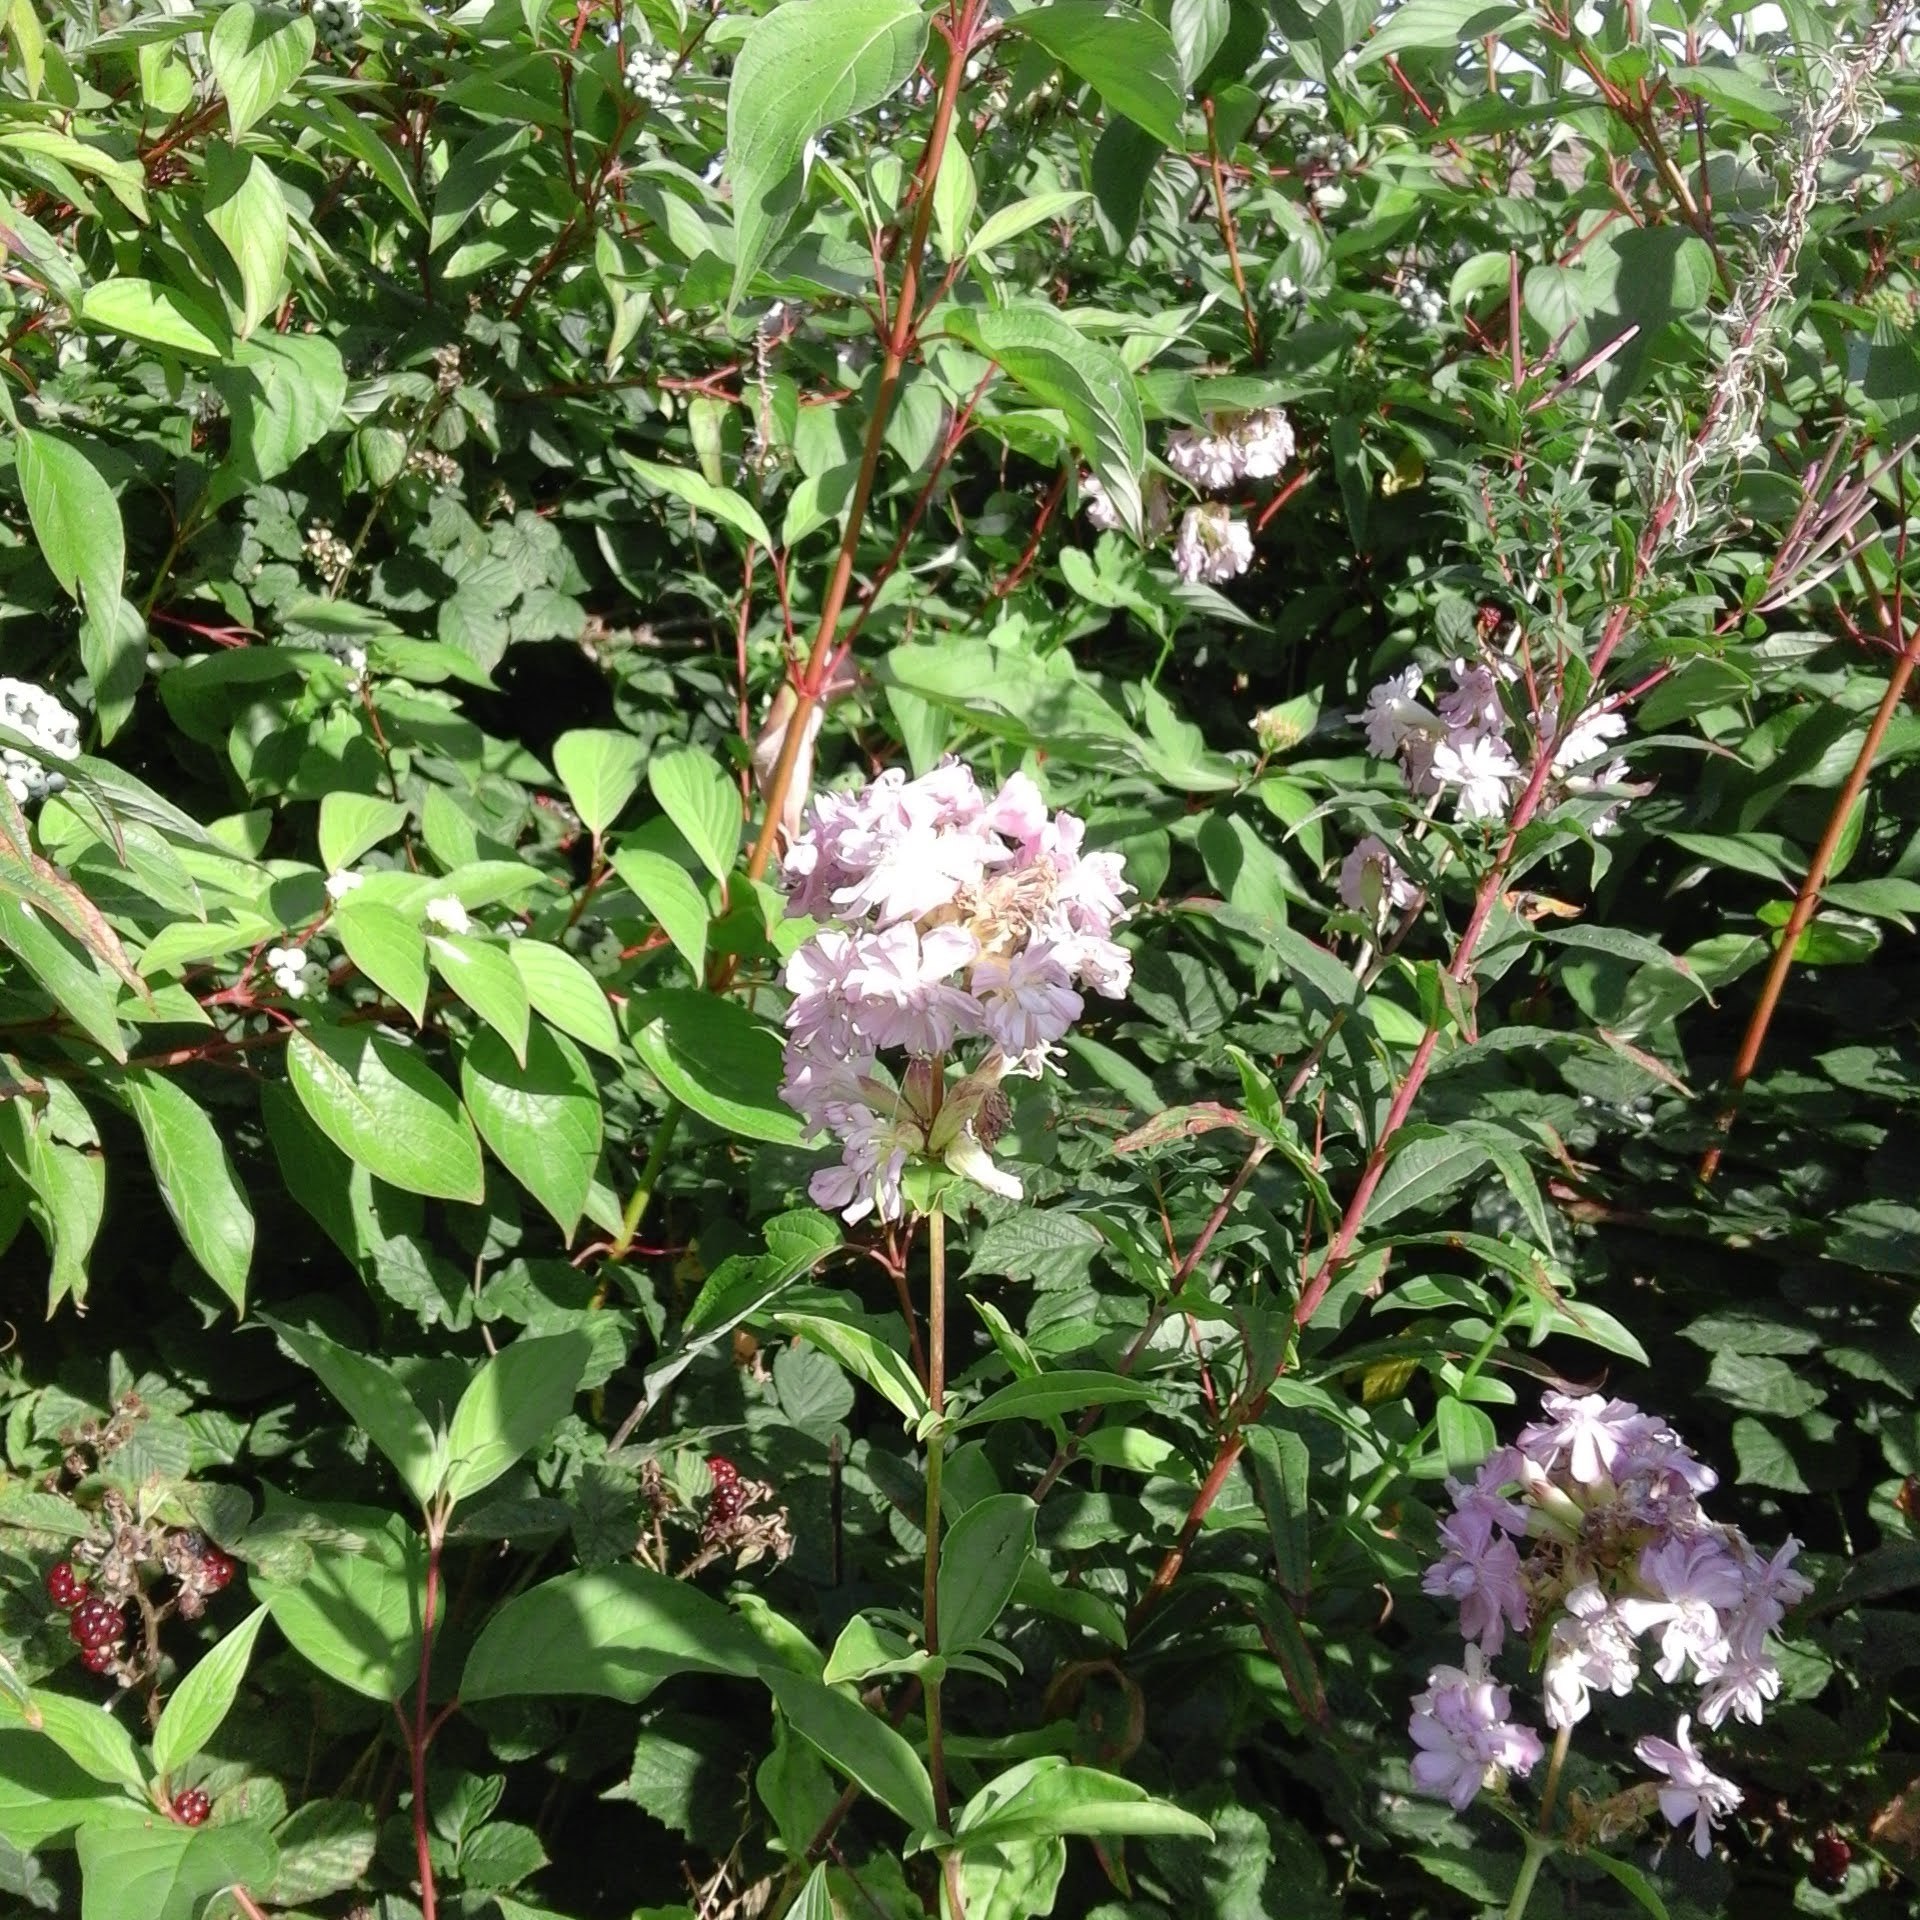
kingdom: Plantae
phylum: Tracheophyta
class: Magnoliopsida
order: Caryophyllales
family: Caryophyllaceae
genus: Saponaria
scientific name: Saponaria officinalis
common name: Soapwort
